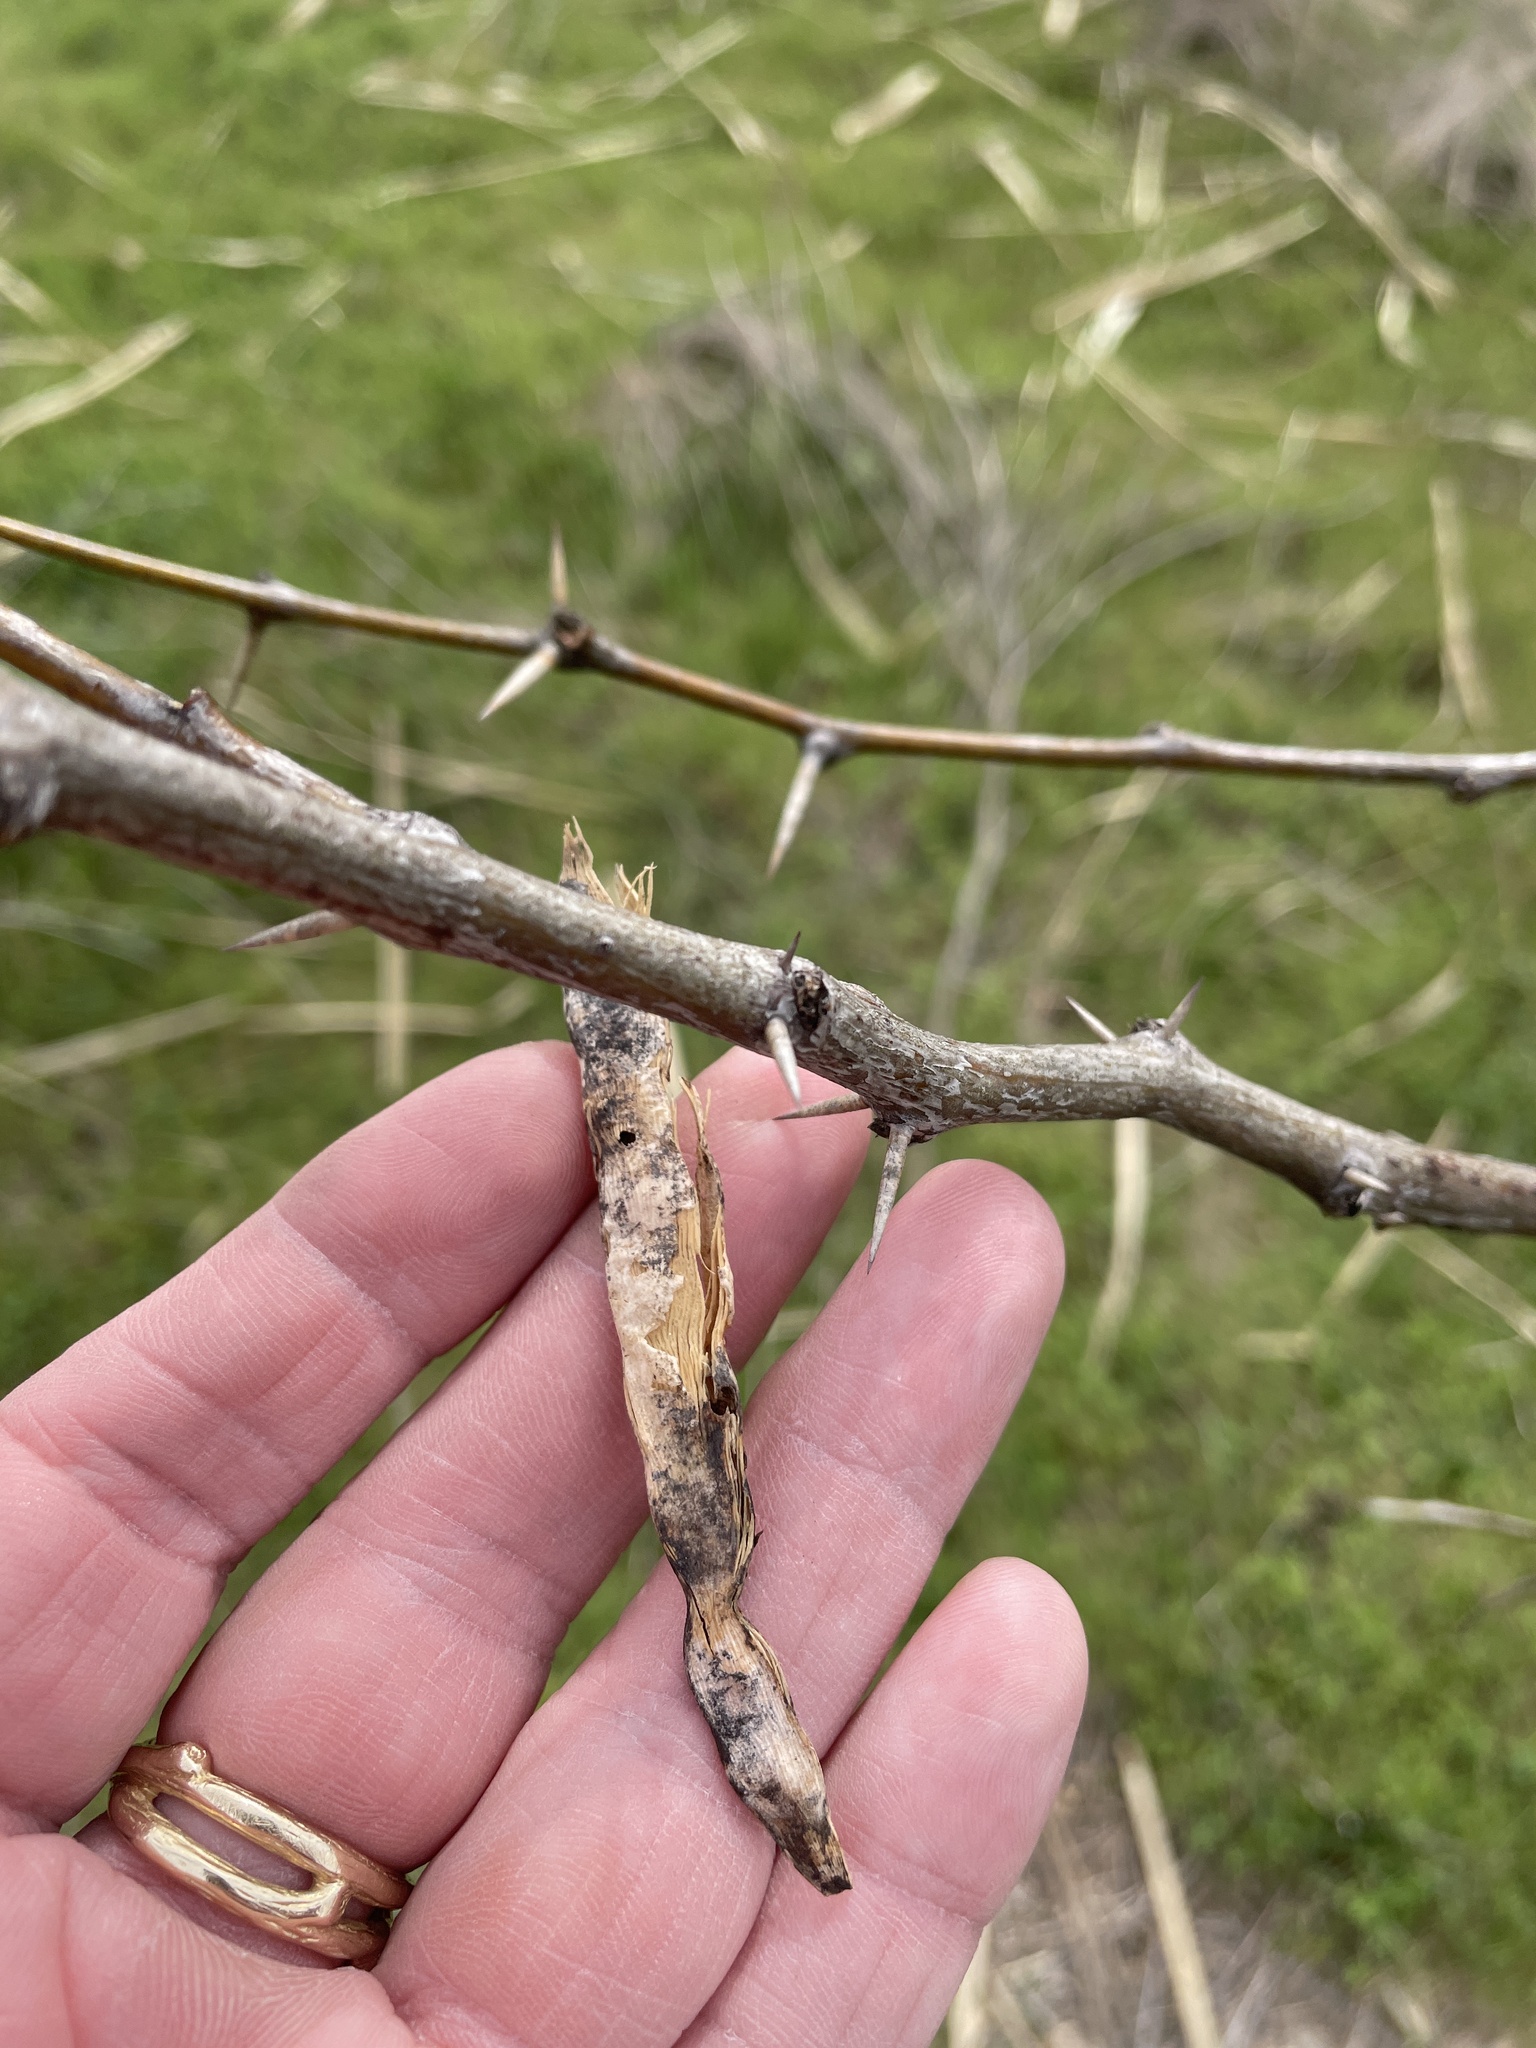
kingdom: Plantae
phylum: Tracheophyta
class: Magnoliopsida
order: Fabales
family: Fabaceae
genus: Prosopis
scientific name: Prosopis glandulosa
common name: Honey mesquite
